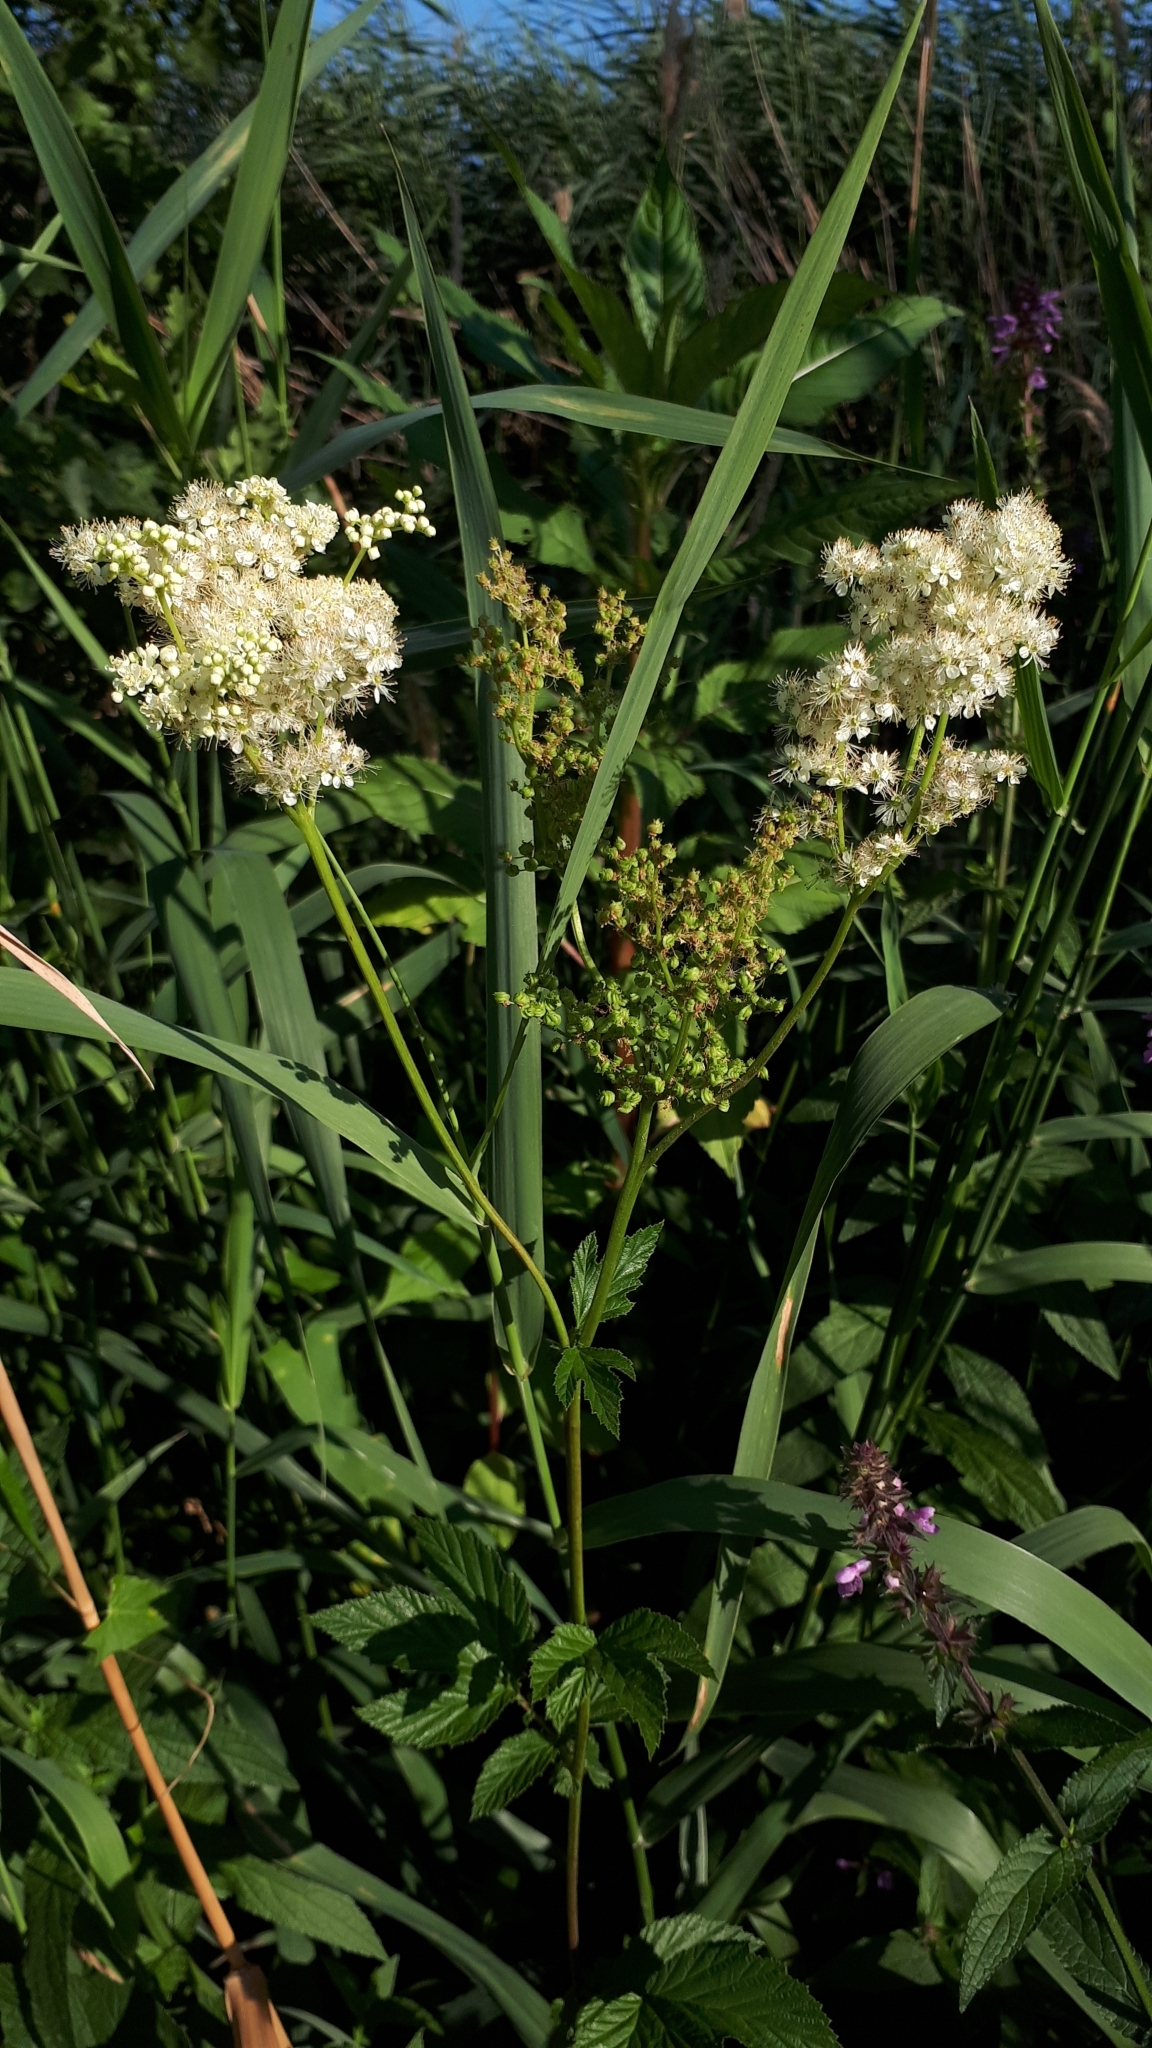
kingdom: Plantae
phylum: Tracheophyta
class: Magnoliopsida
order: Rosales
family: Rosaceae
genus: Filipendula
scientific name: Filipendula ulmaria
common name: Meadowsweet
